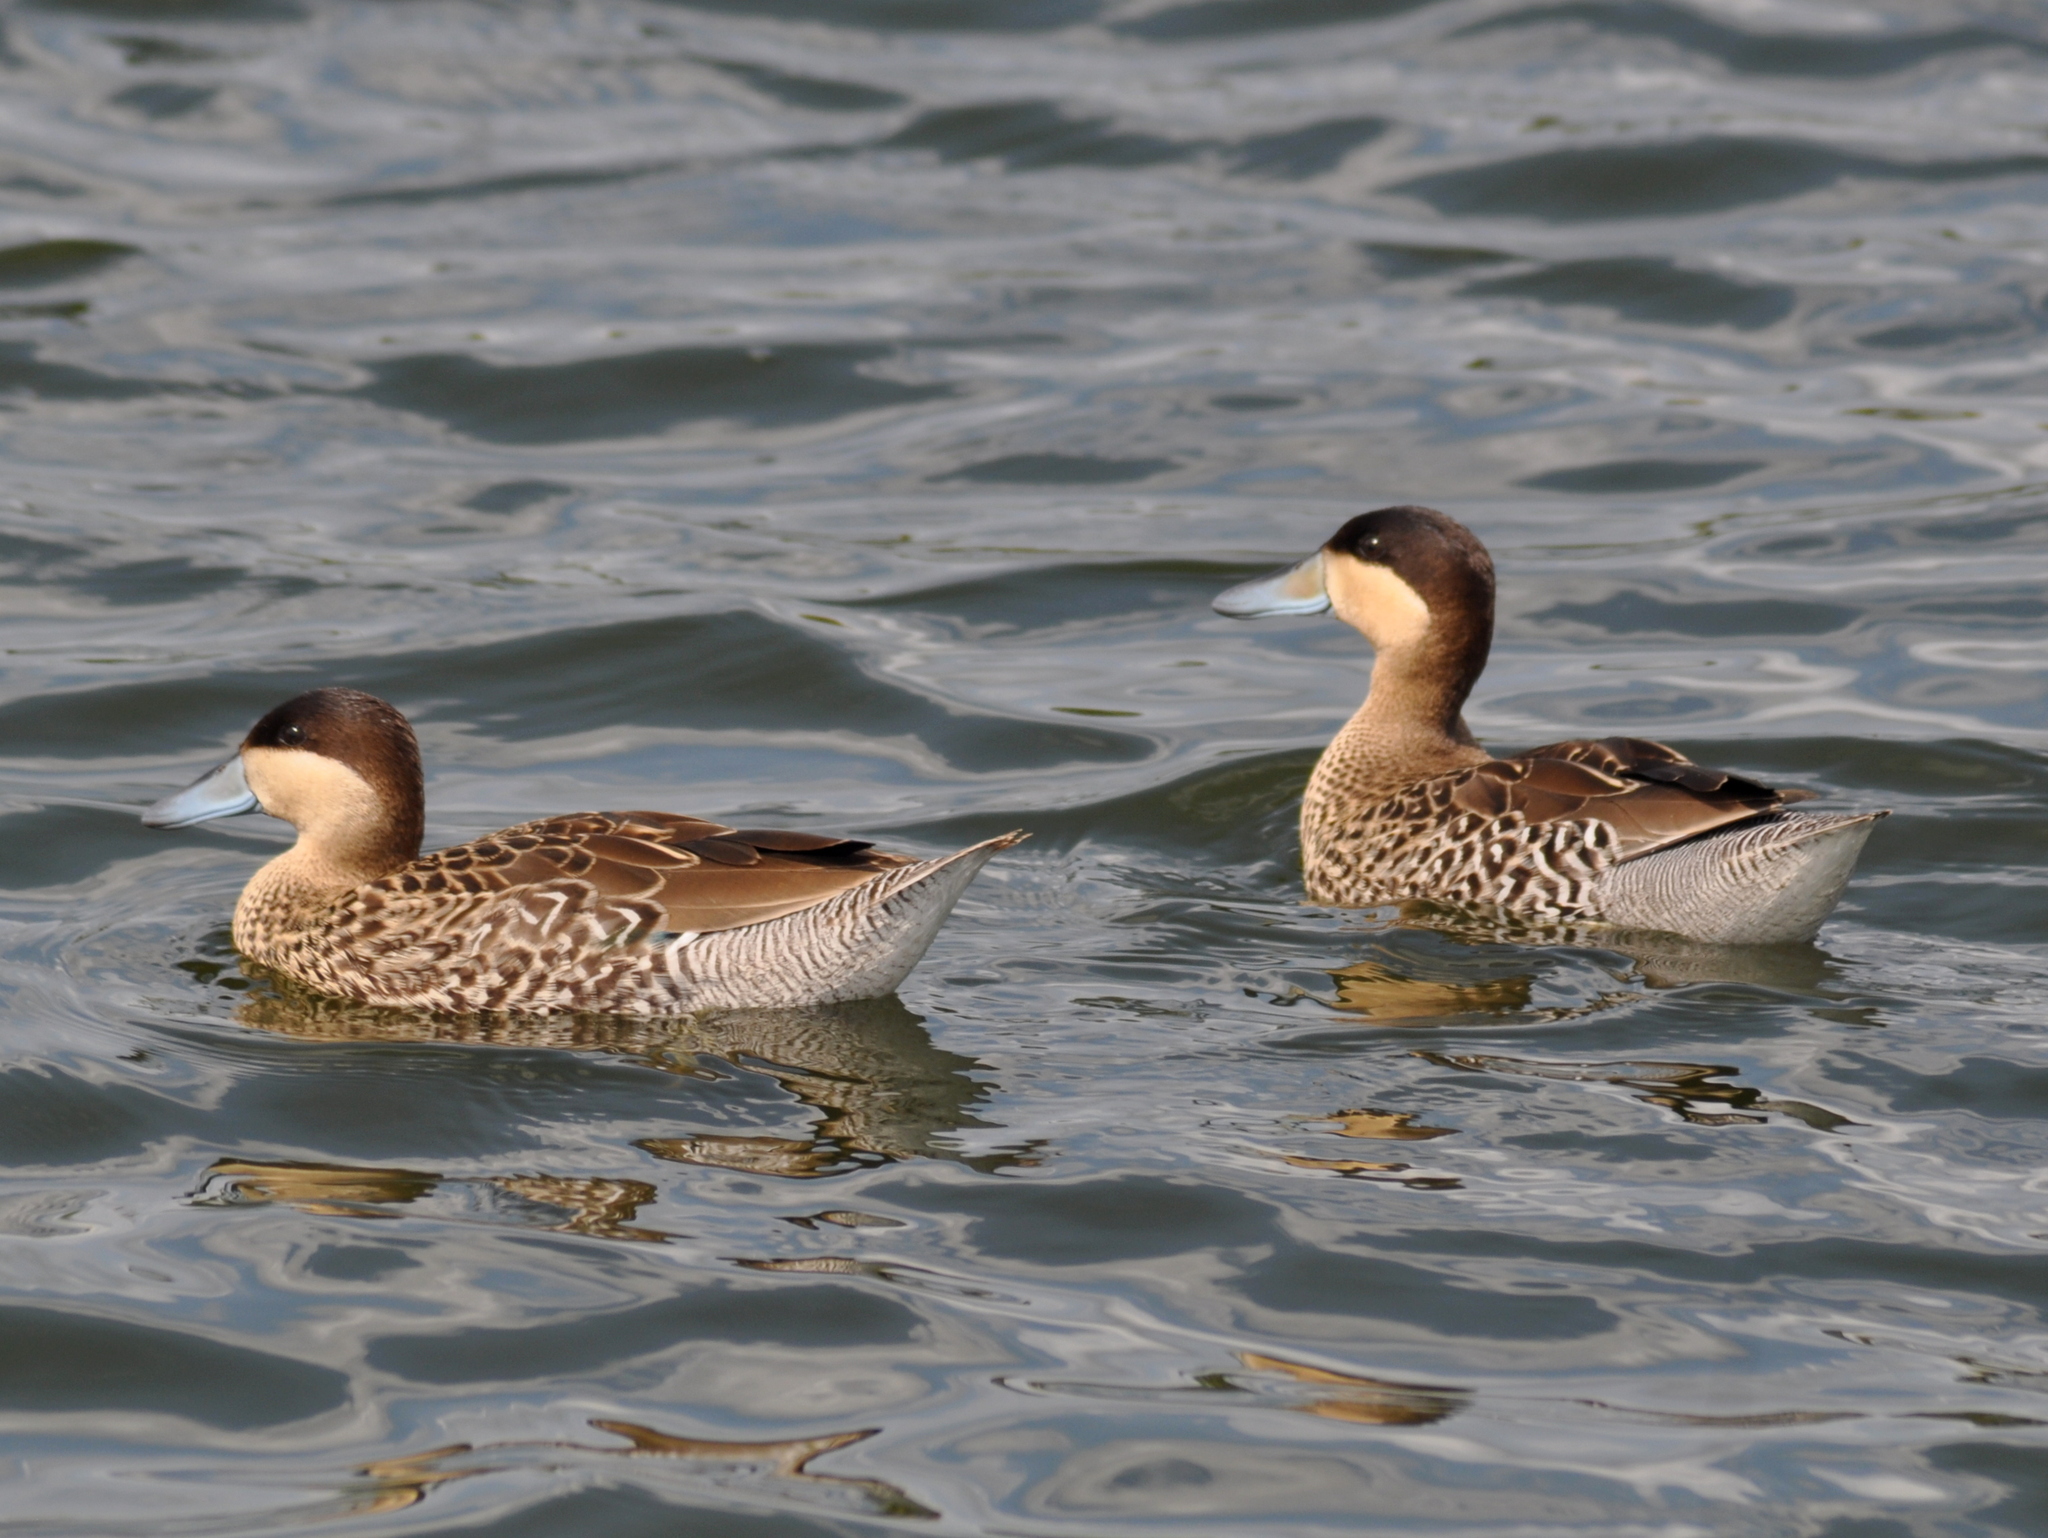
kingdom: Animalia
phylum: Chordata
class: Aves
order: Anseriformes
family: Anatidae
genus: Spatula
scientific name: Spatula versicolor
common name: Silver teal
